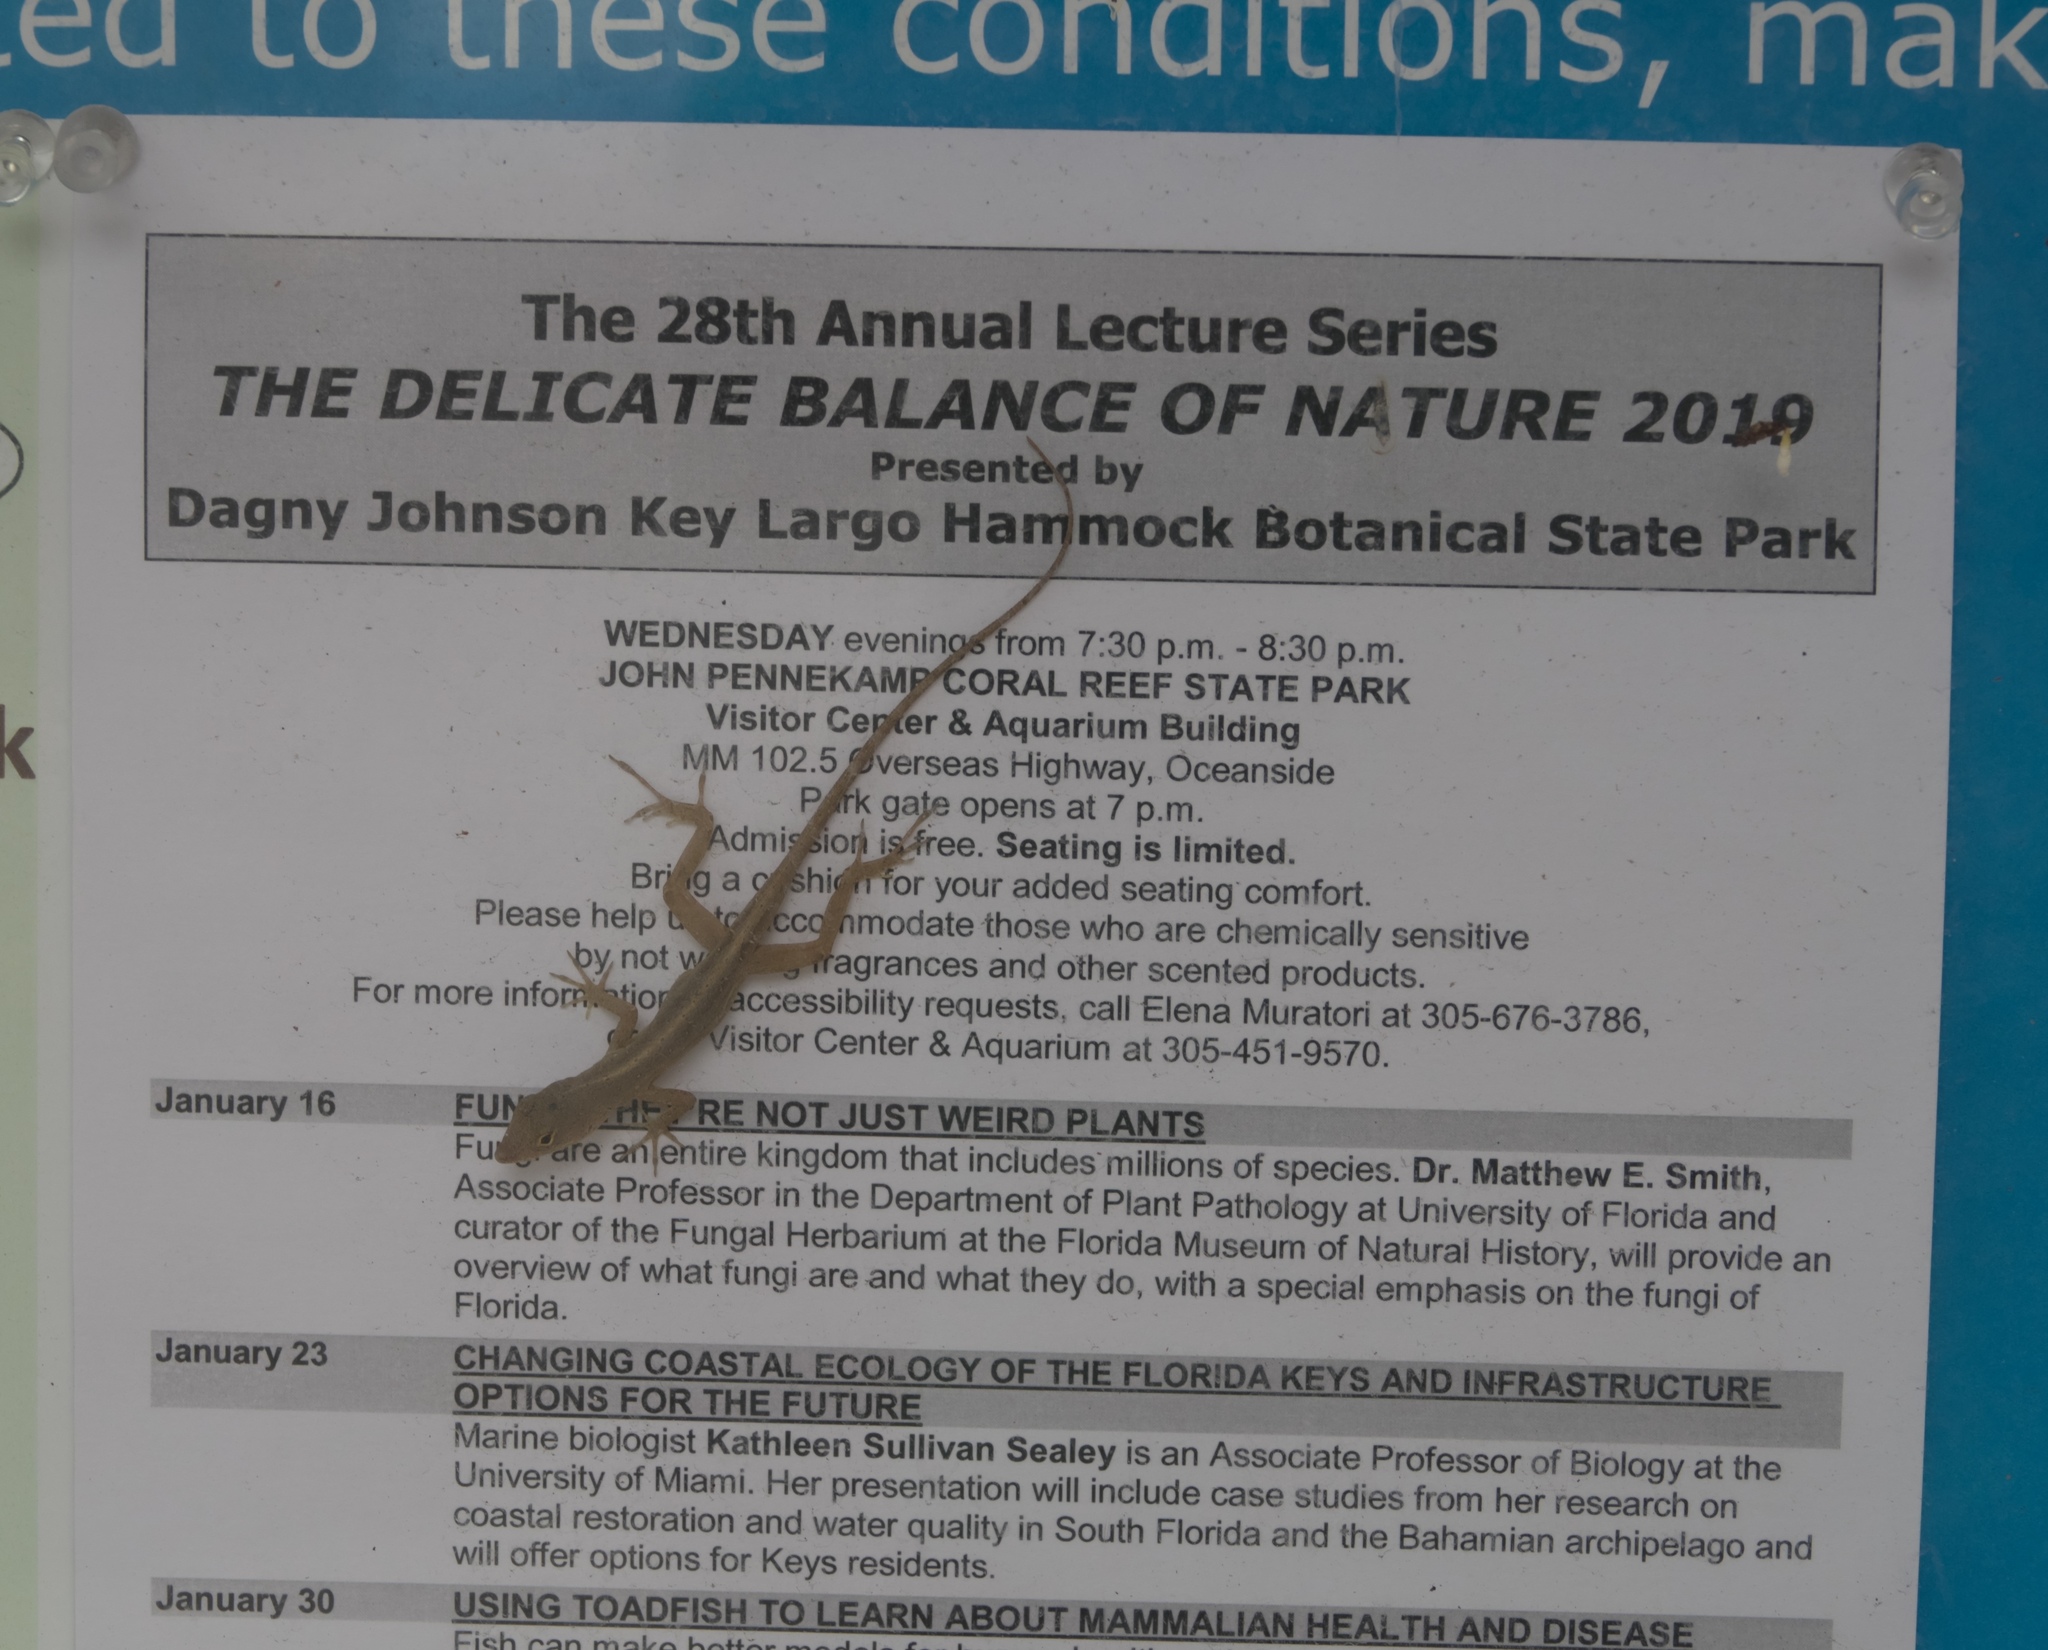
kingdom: Animalia
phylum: Chordata
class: Squamata
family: Dactyloidae
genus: Anolis
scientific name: Anolis sagrei
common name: Brown anole
